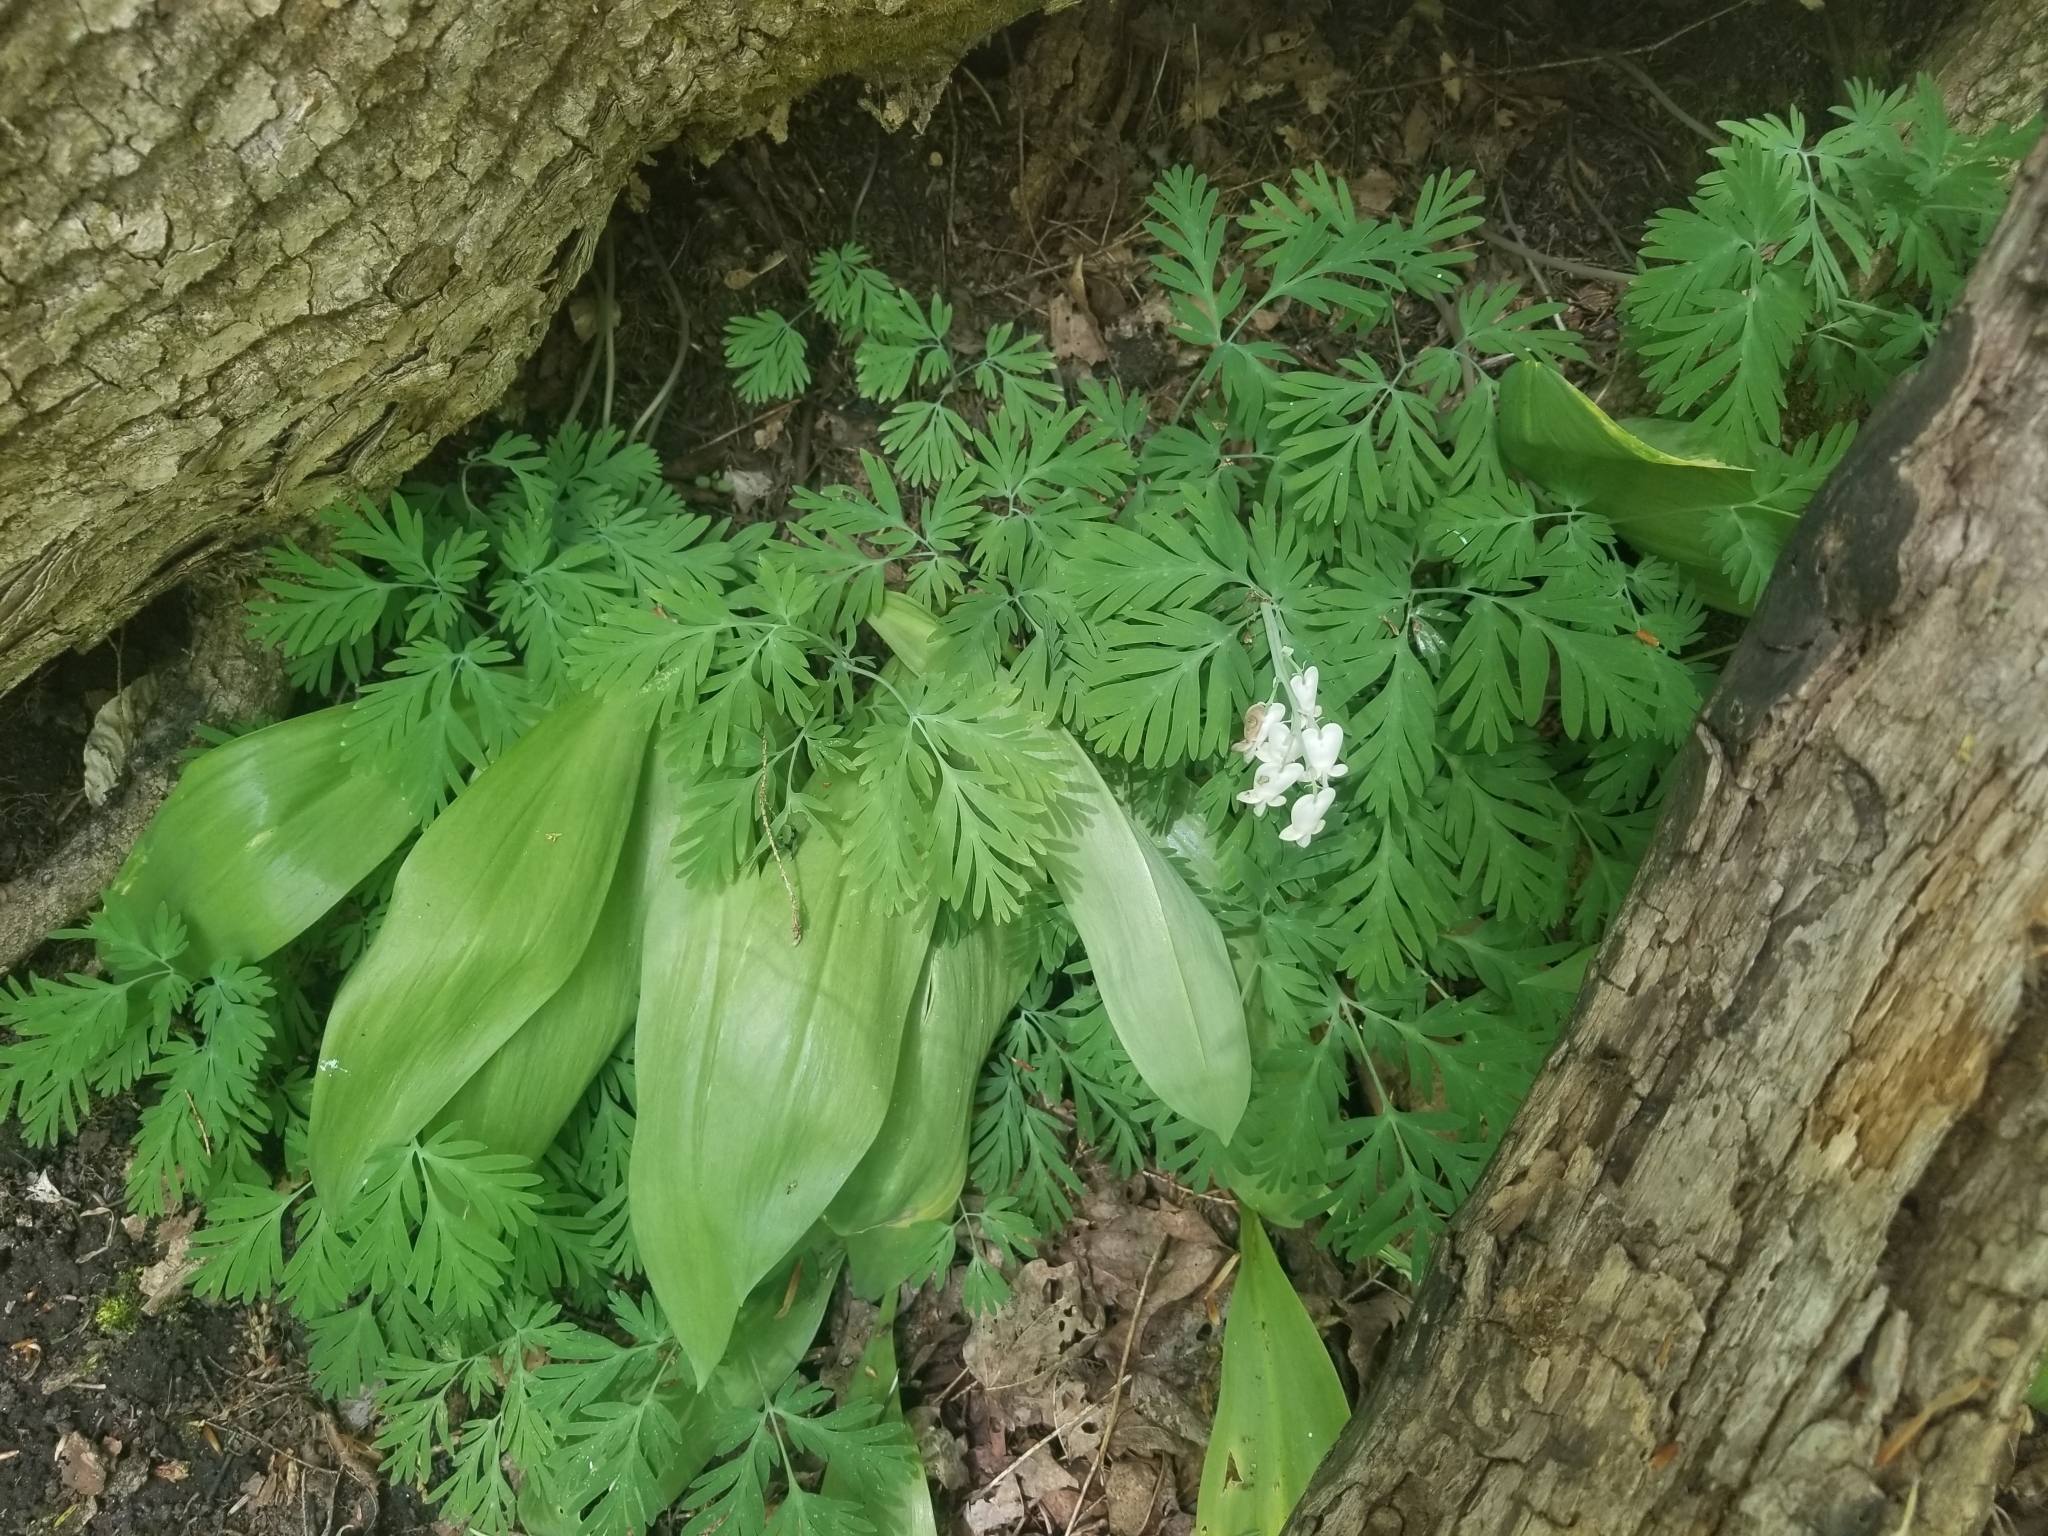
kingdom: Plantae
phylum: Tracheophyta
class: Magnoliopsida
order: Ranunculales
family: Papaveraceae
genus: Dicentra
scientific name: Dicentra canadensis
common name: Squirrel-corn
